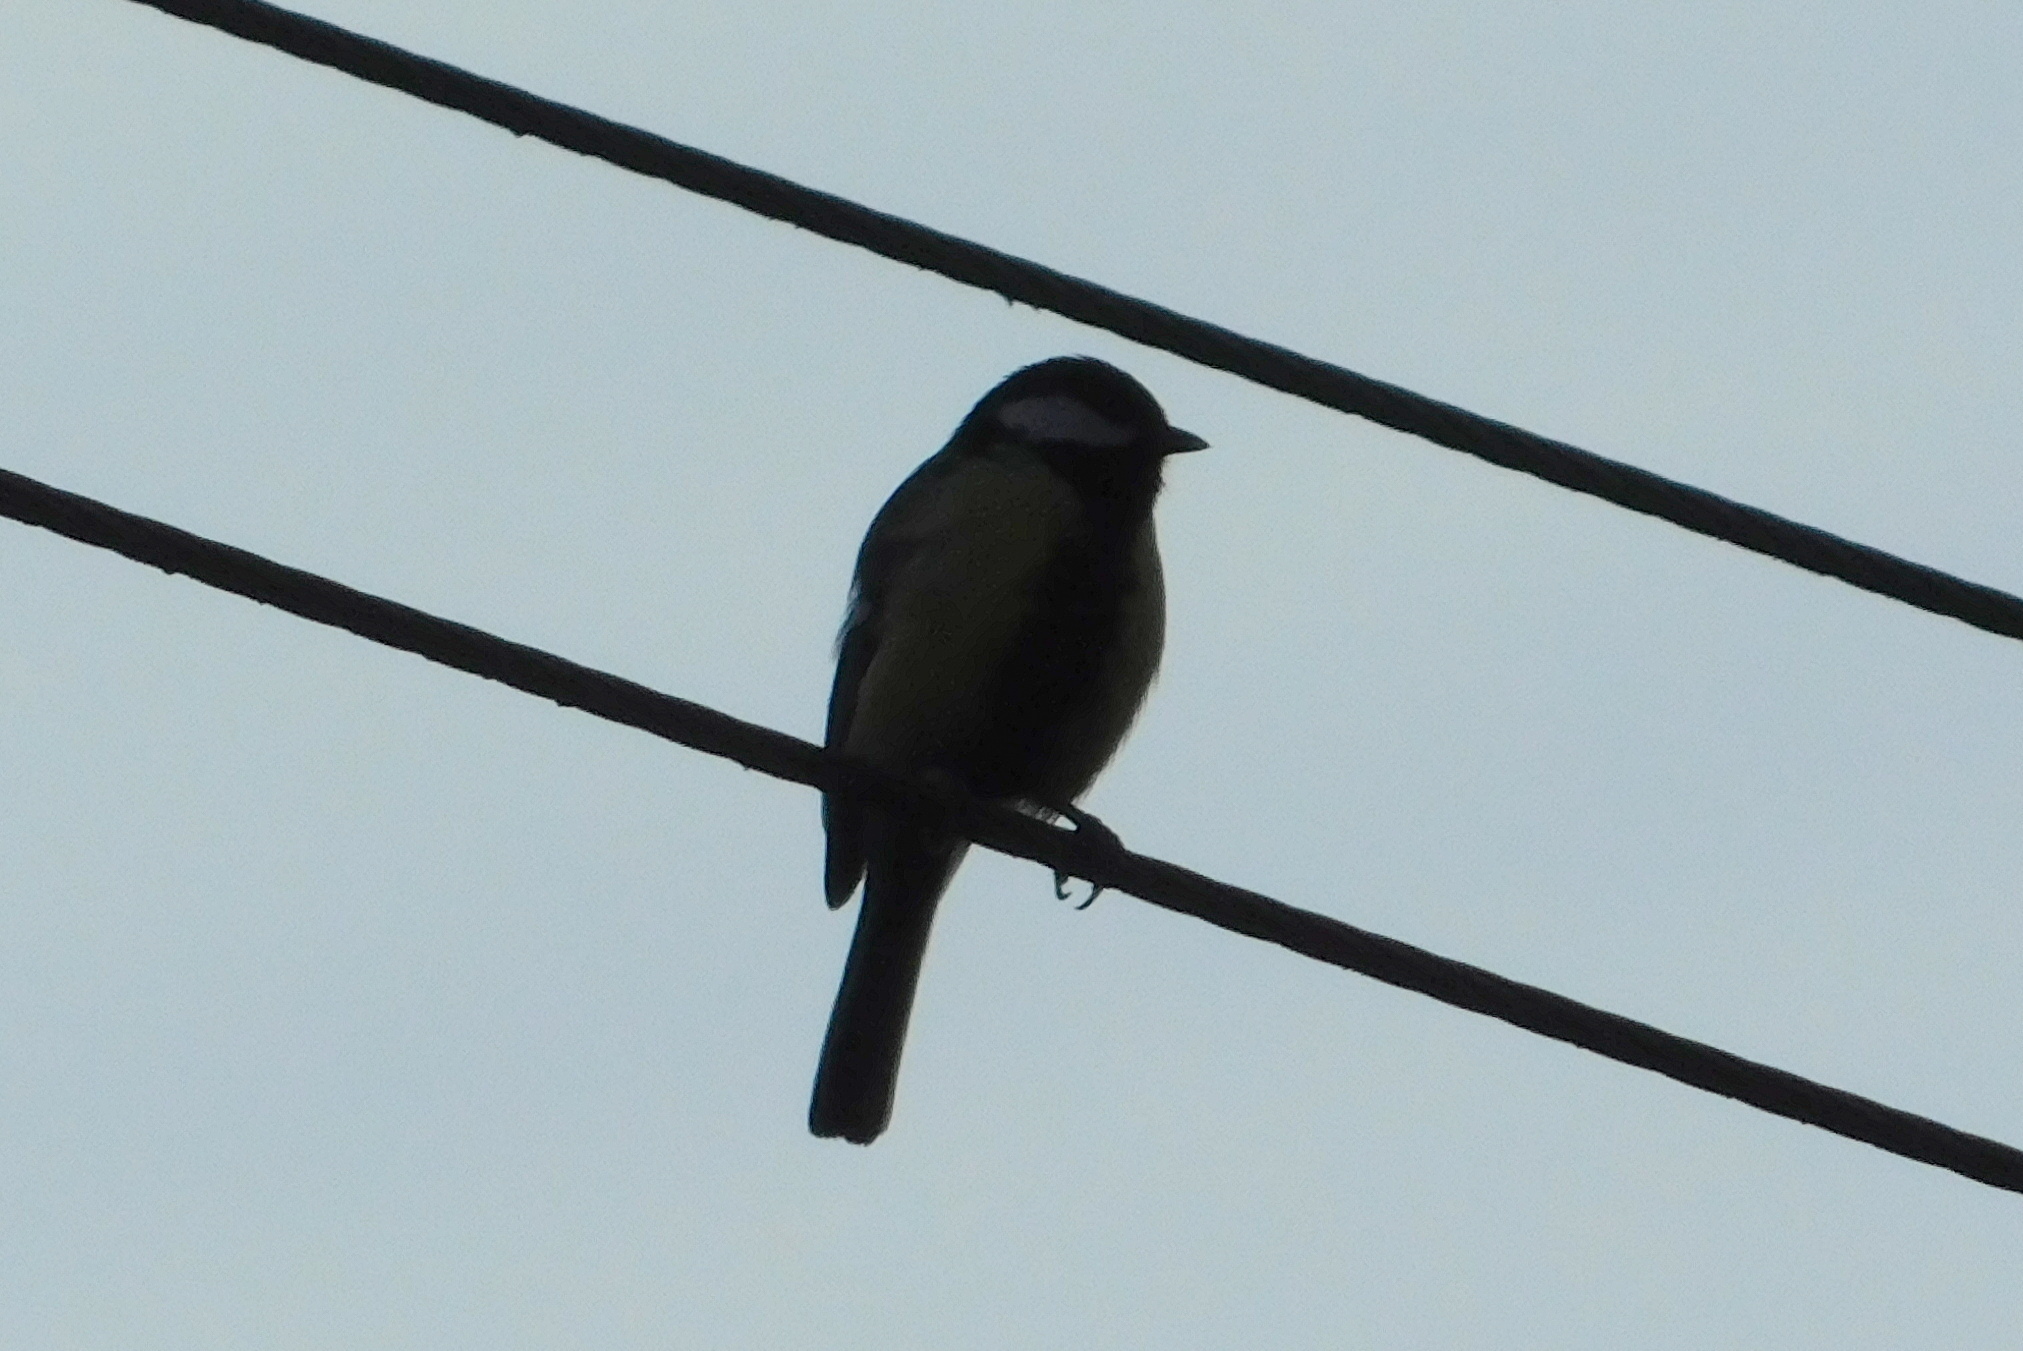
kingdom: Animalia
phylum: Chordata
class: Aves
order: Passeriformes
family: Paridae
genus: Parus
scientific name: Parus major
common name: Great tit
